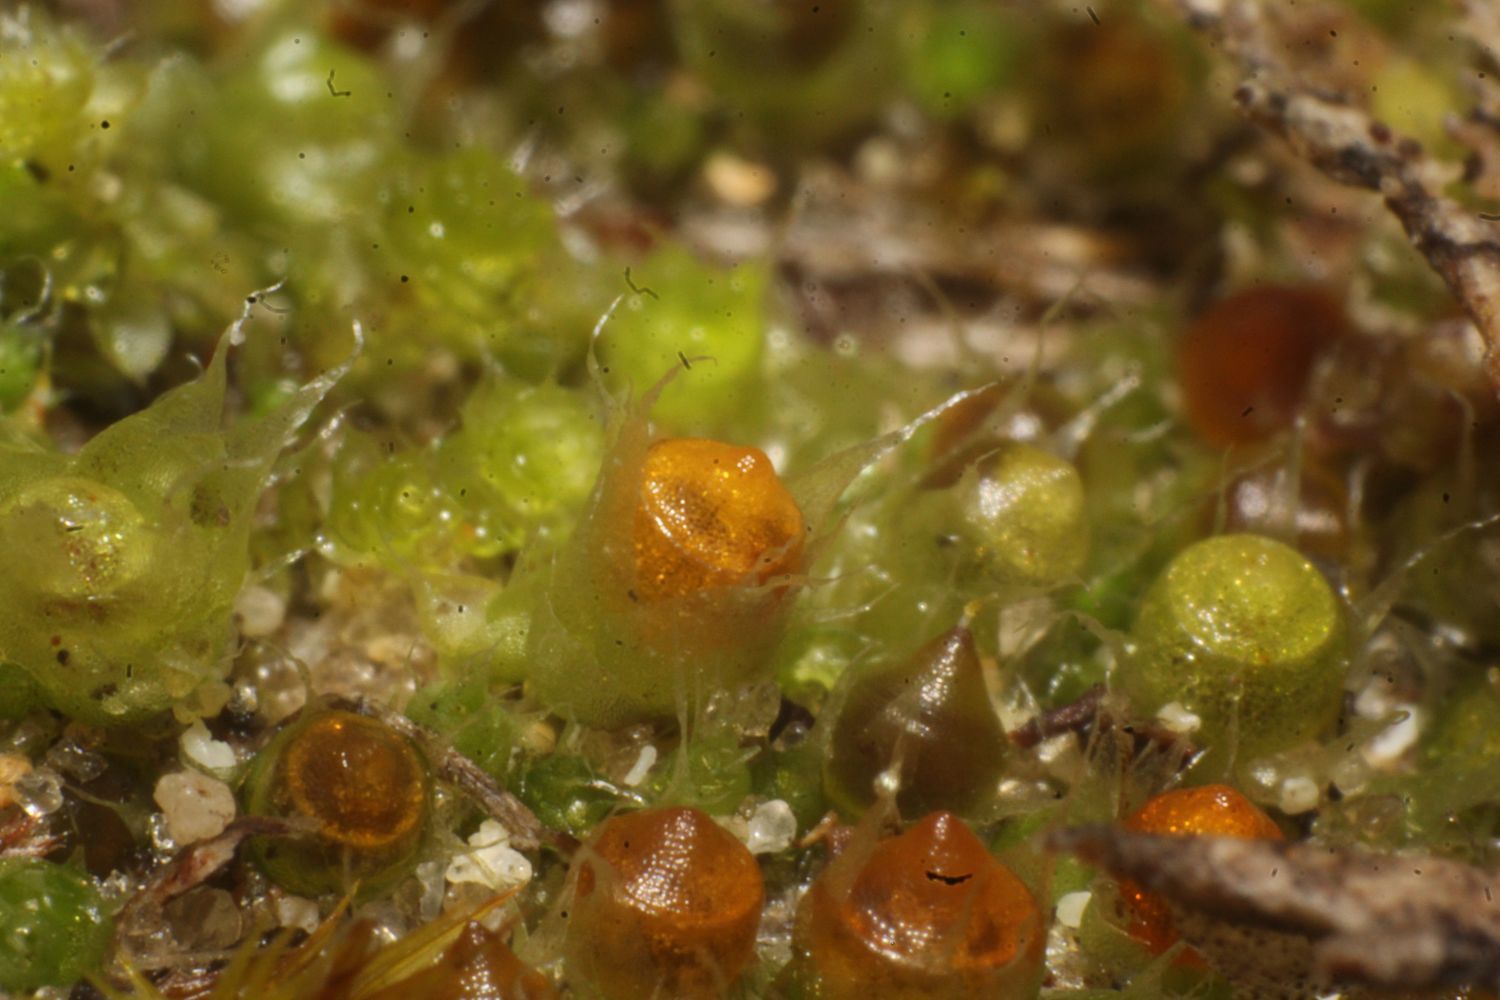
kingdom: Plantae
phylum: Bryophyta
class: Bryopsida
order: Gigaspermales
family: Gigaspermaceae
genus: Gigaspermum
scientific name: Gigaspermum repens
